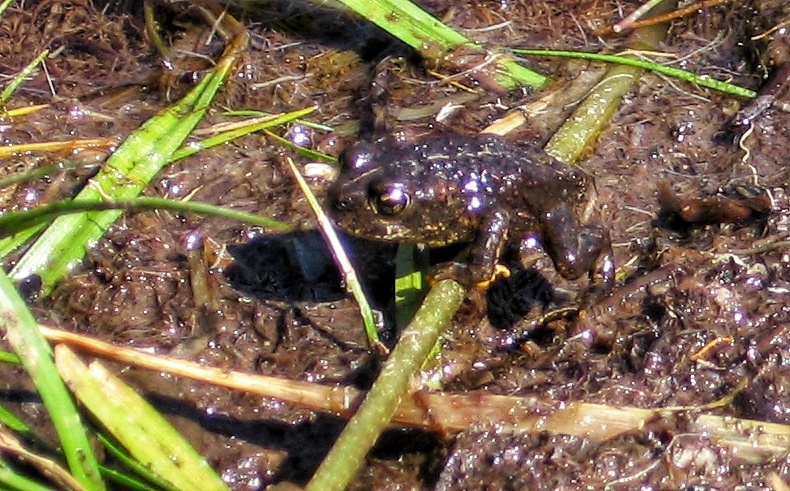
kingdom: Animalia
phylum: Chordata
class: Amphibia
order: Anura
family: Bufonidae
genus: Anaxyrus
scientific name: Anaxyrus boreas
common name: Western toad
